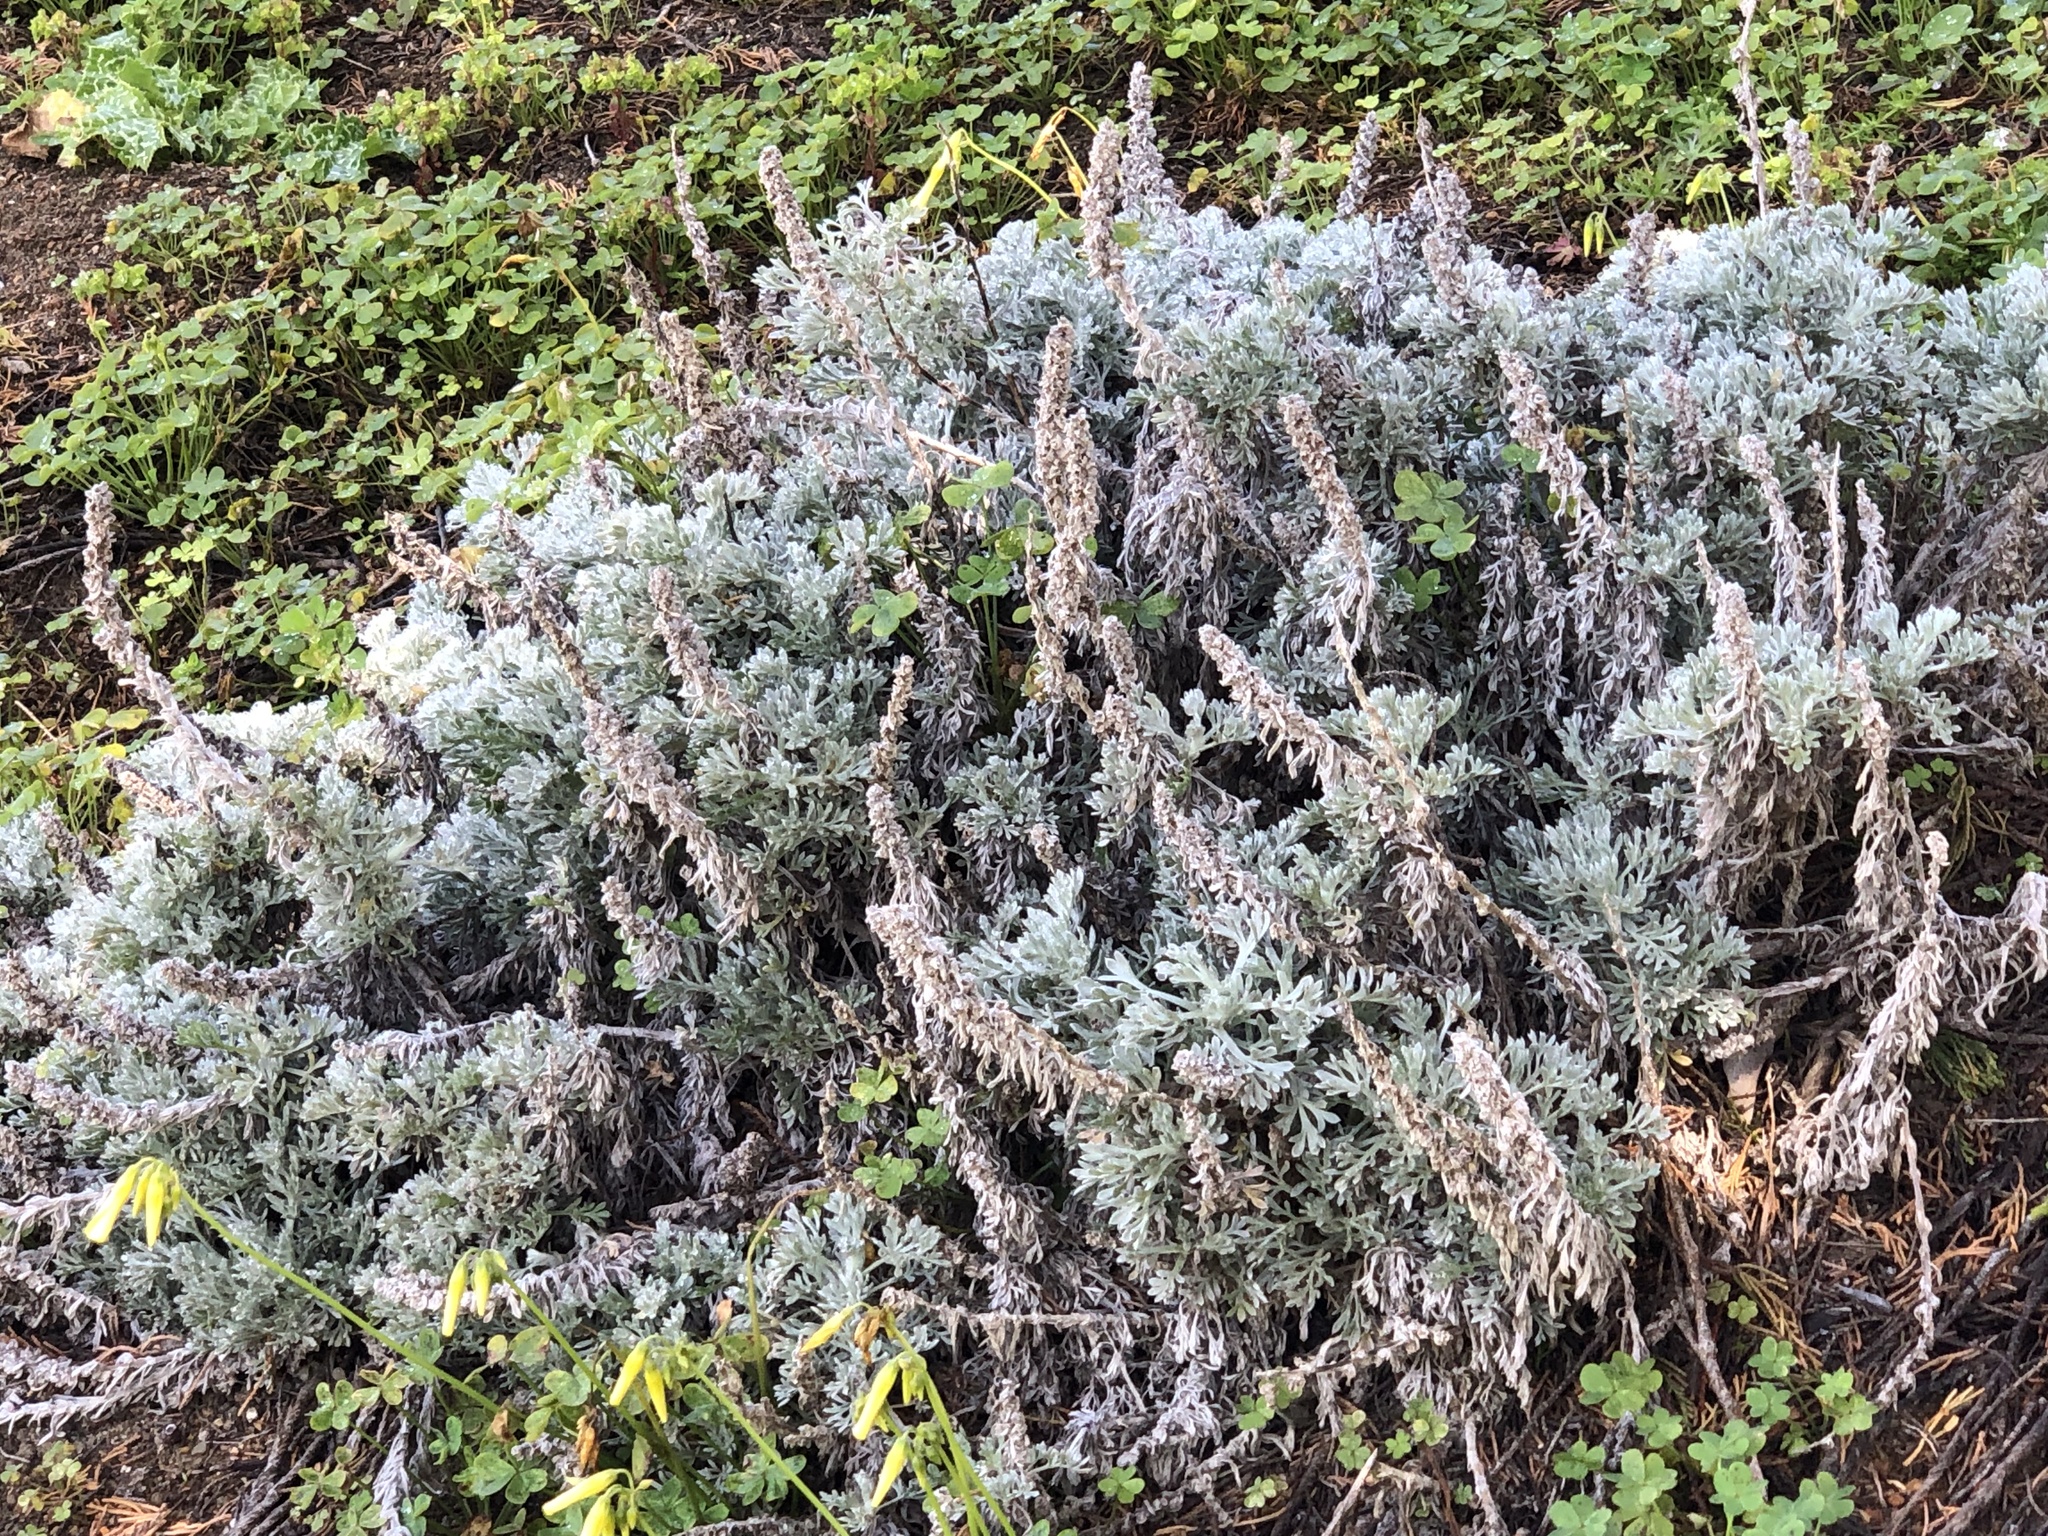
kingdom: Plantae
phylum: Tracheophyta
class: Magnoliopsida
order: Asterales
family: Asteraceae
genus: Artemisia
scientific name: Artemisia pycnocephala
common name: Coastal sagewort
